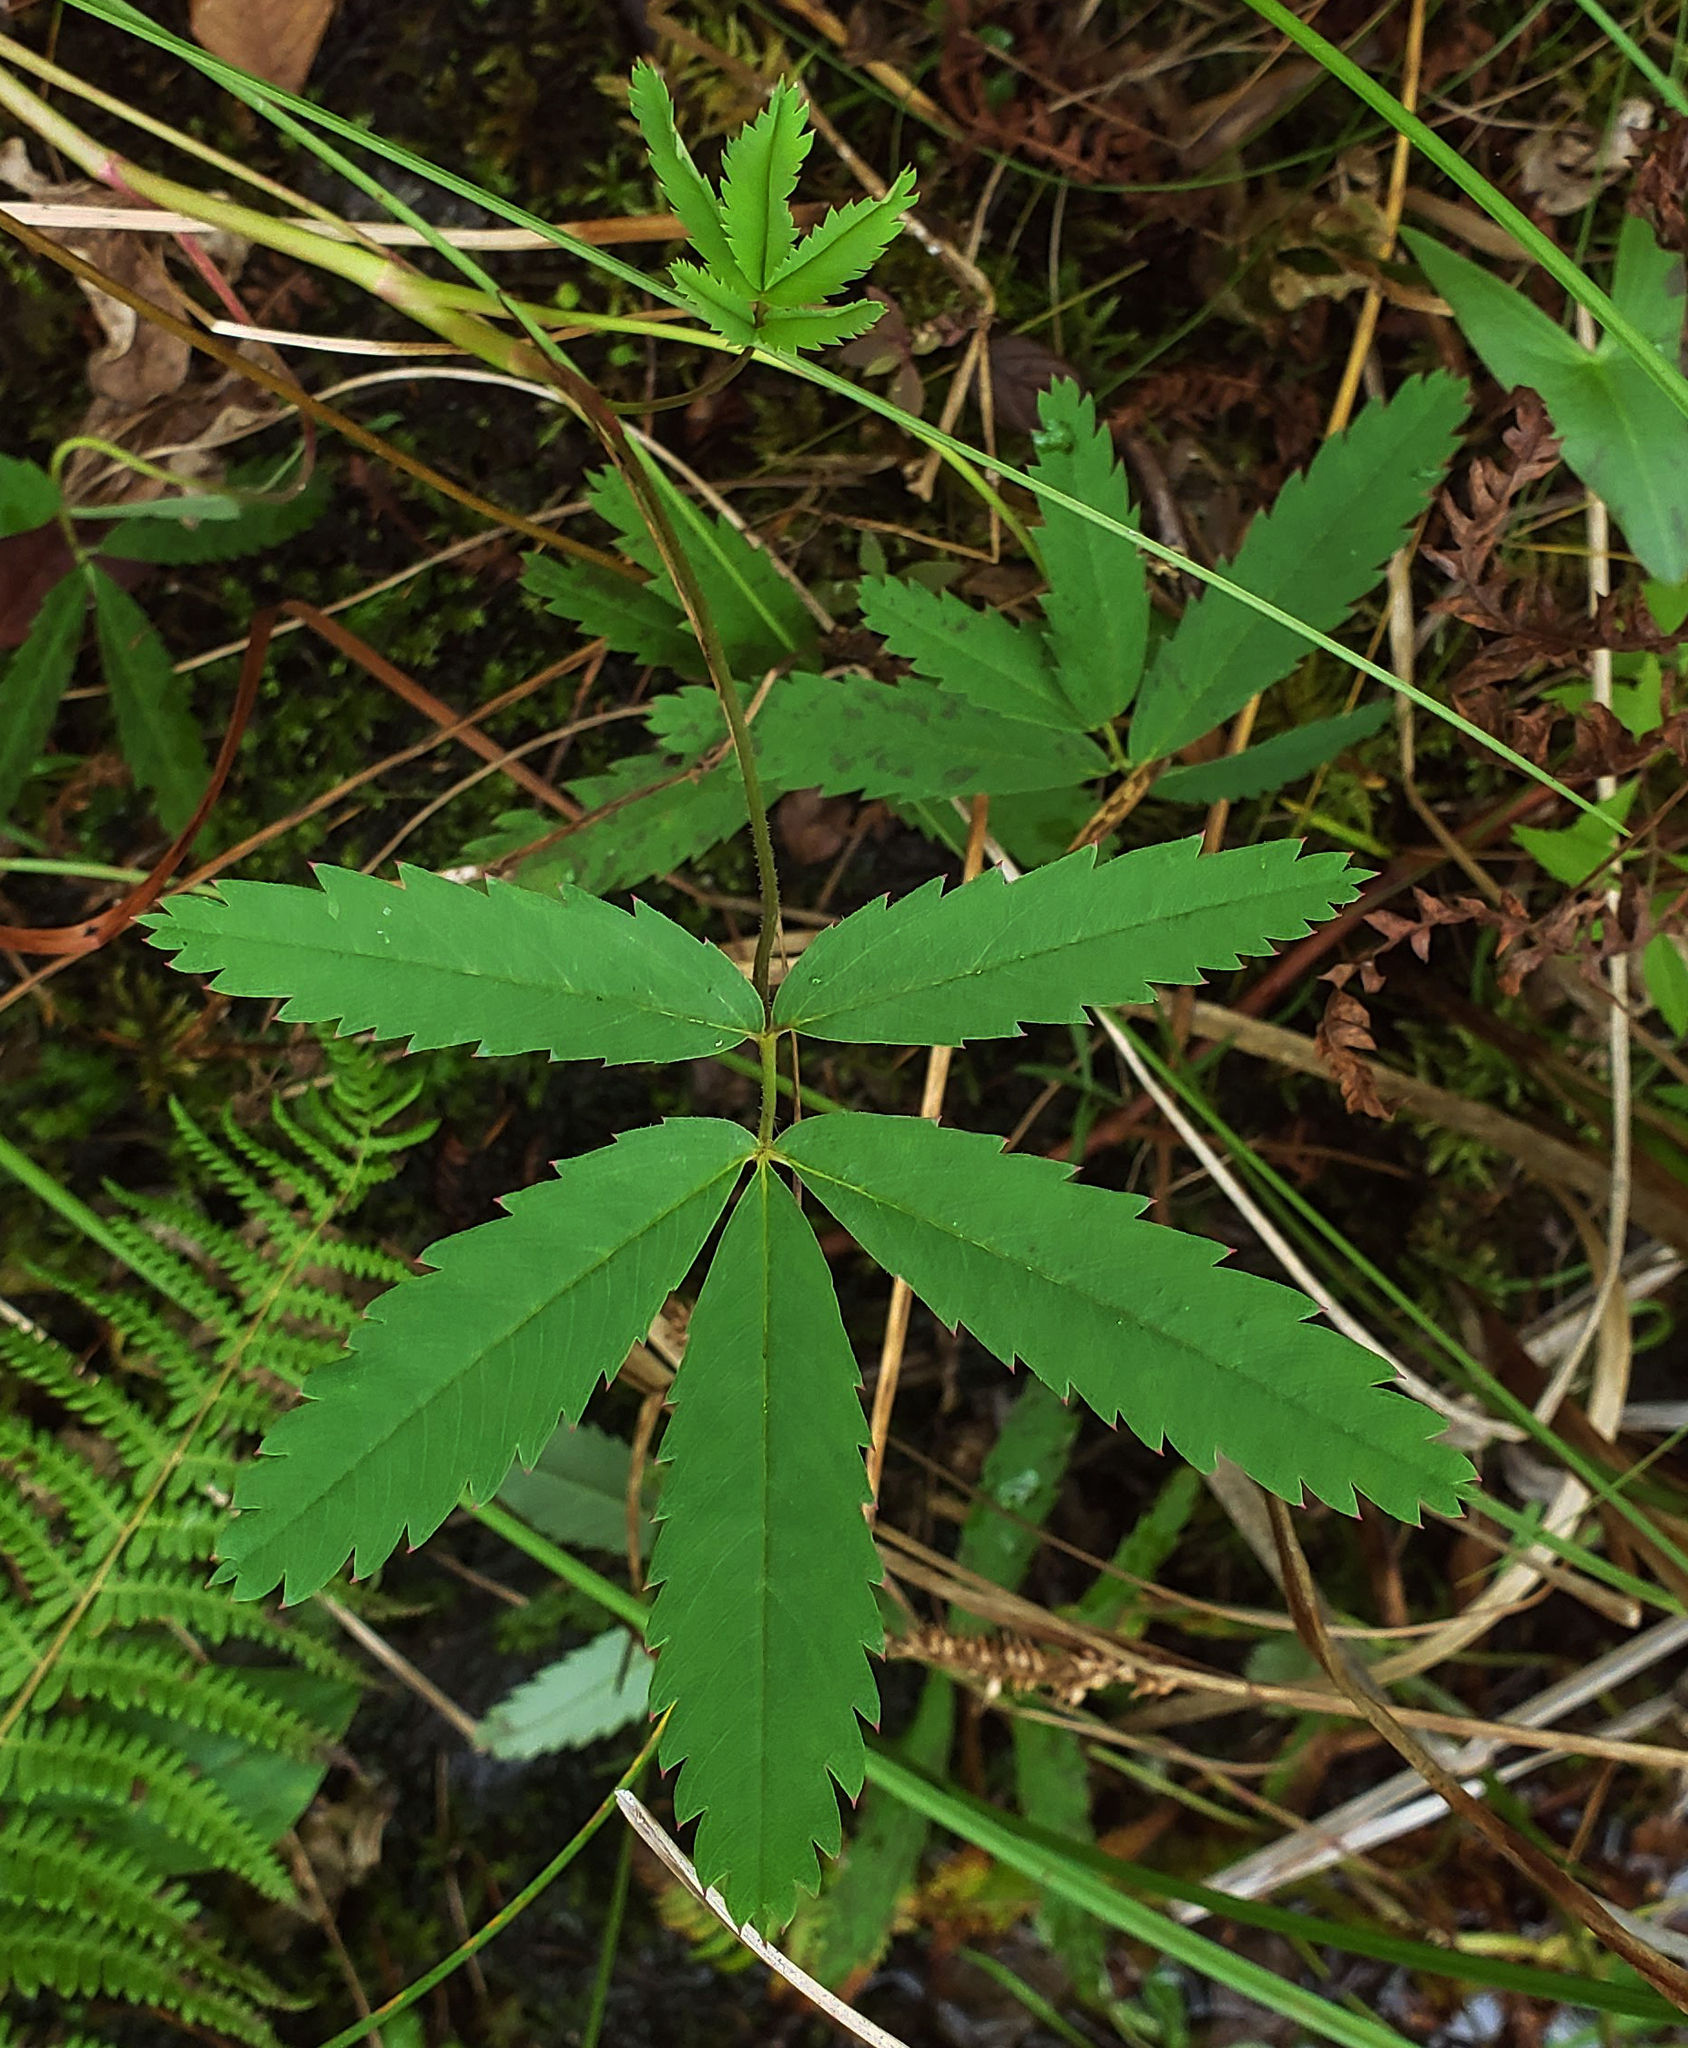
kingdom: Plantae
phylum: Tracheophyta
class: Magnoliopsida
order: Rosales
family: Rosaceae
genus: Comarum
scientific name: Comarum palustre
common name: Marsh cinquefoil
